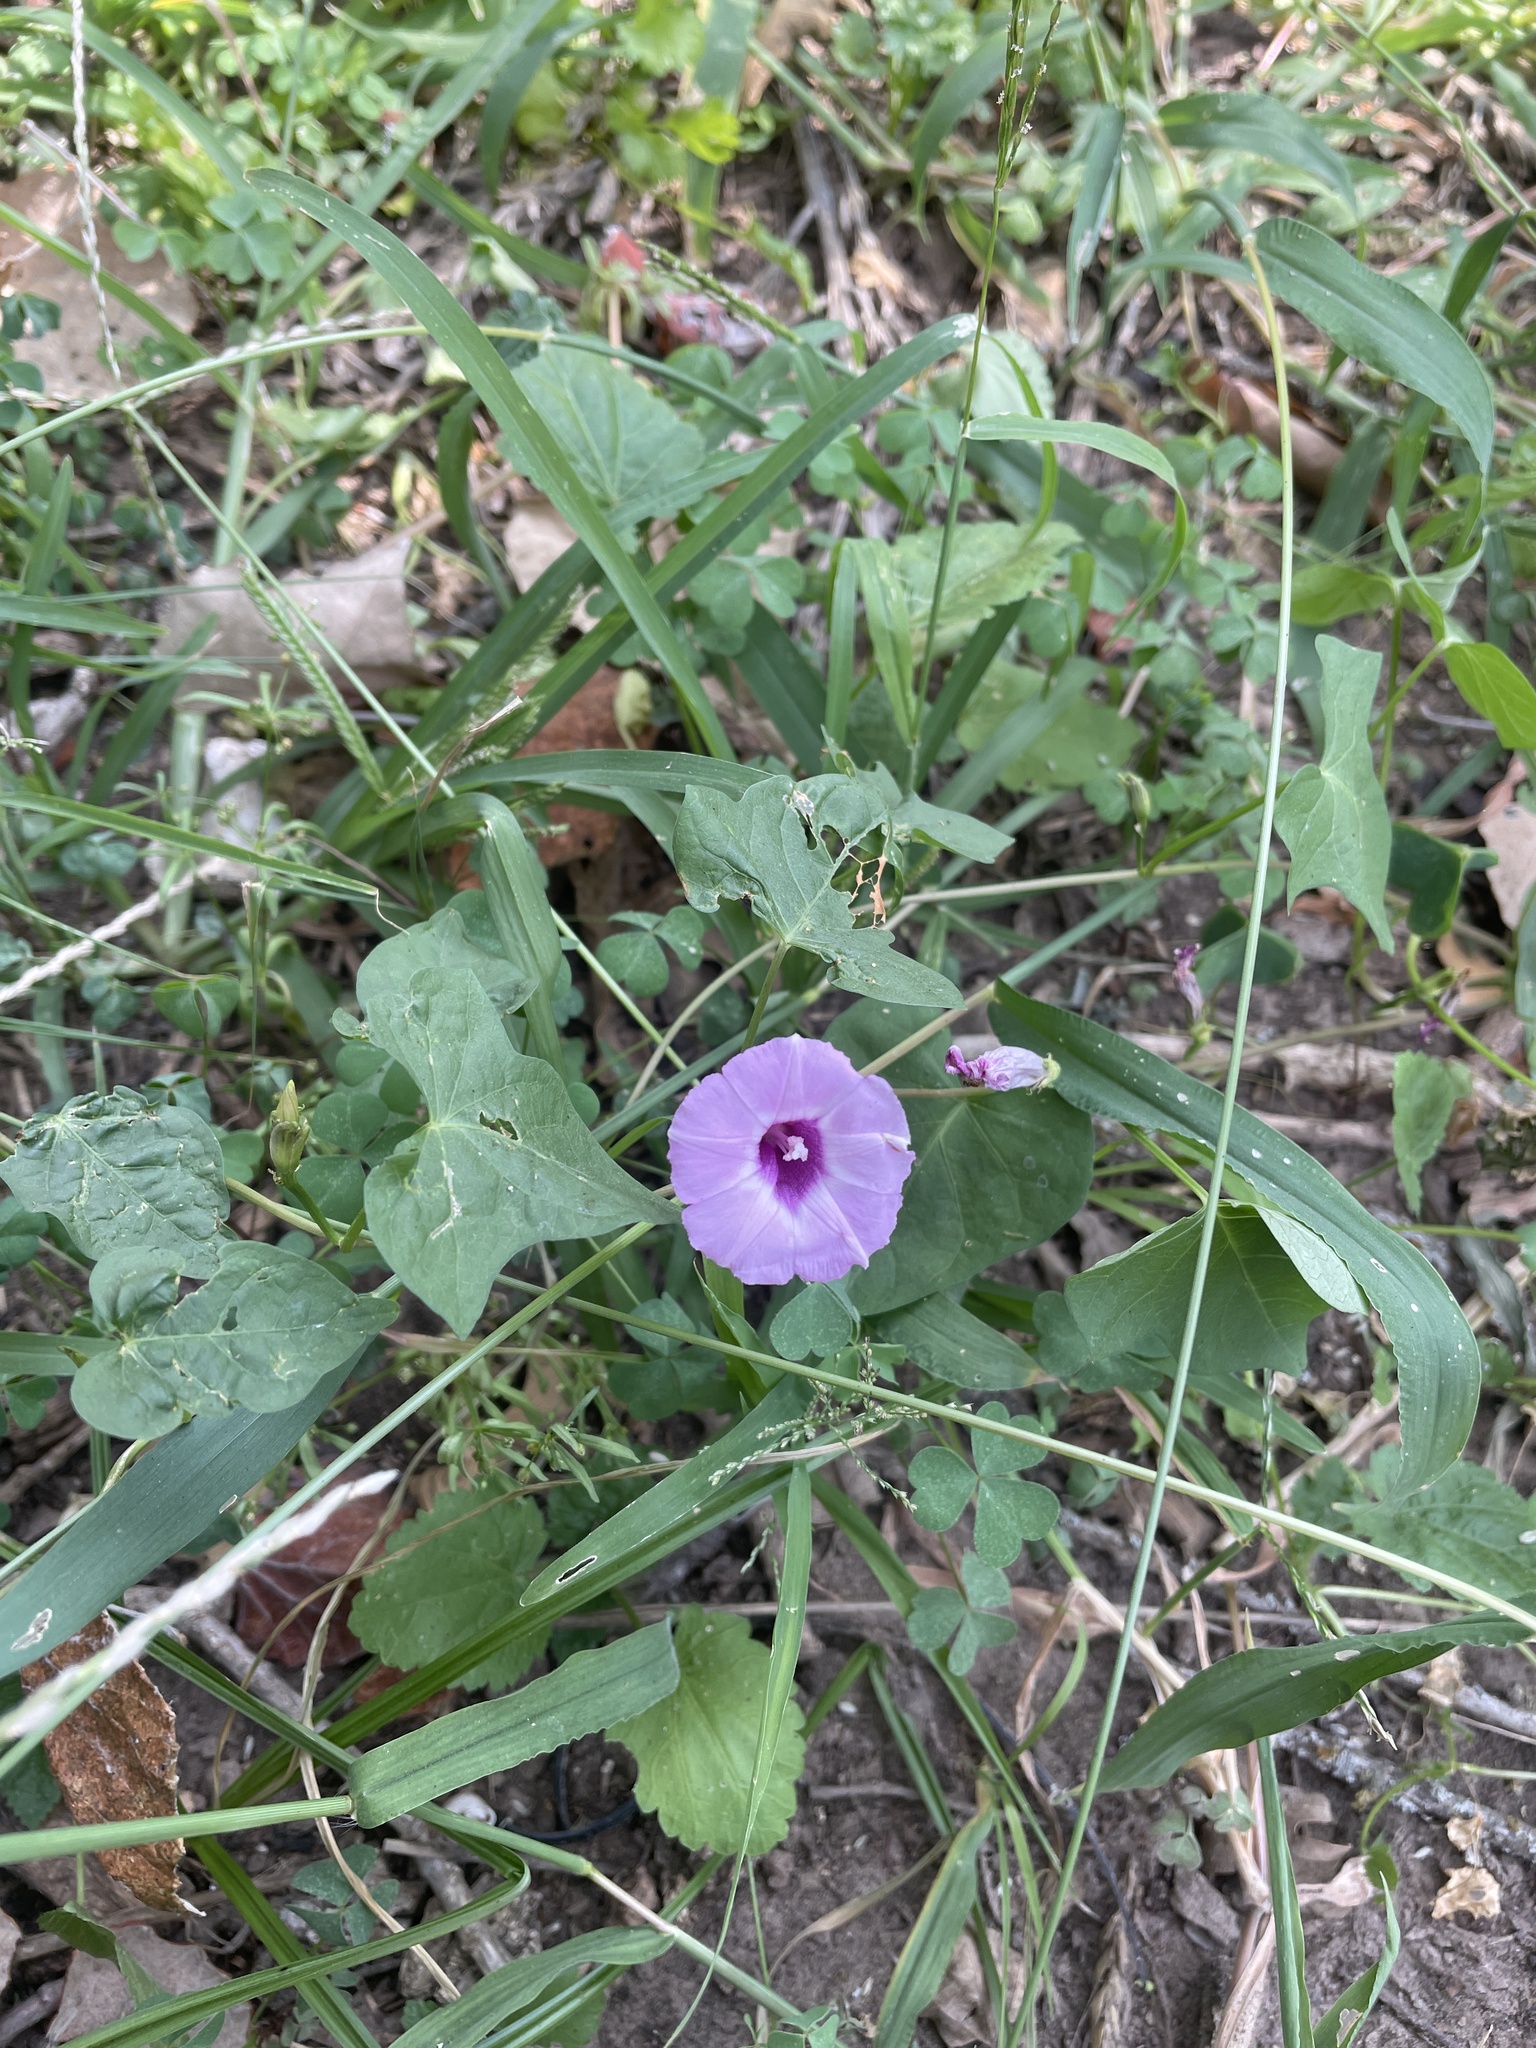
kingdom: Plantae
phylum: Tracheophyta
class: Magnoliopsida
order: Solanales
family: Convolvulaceae
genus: Ipomoea
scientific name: Ipomoea cordatotriloba
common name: Cotton morning glory
